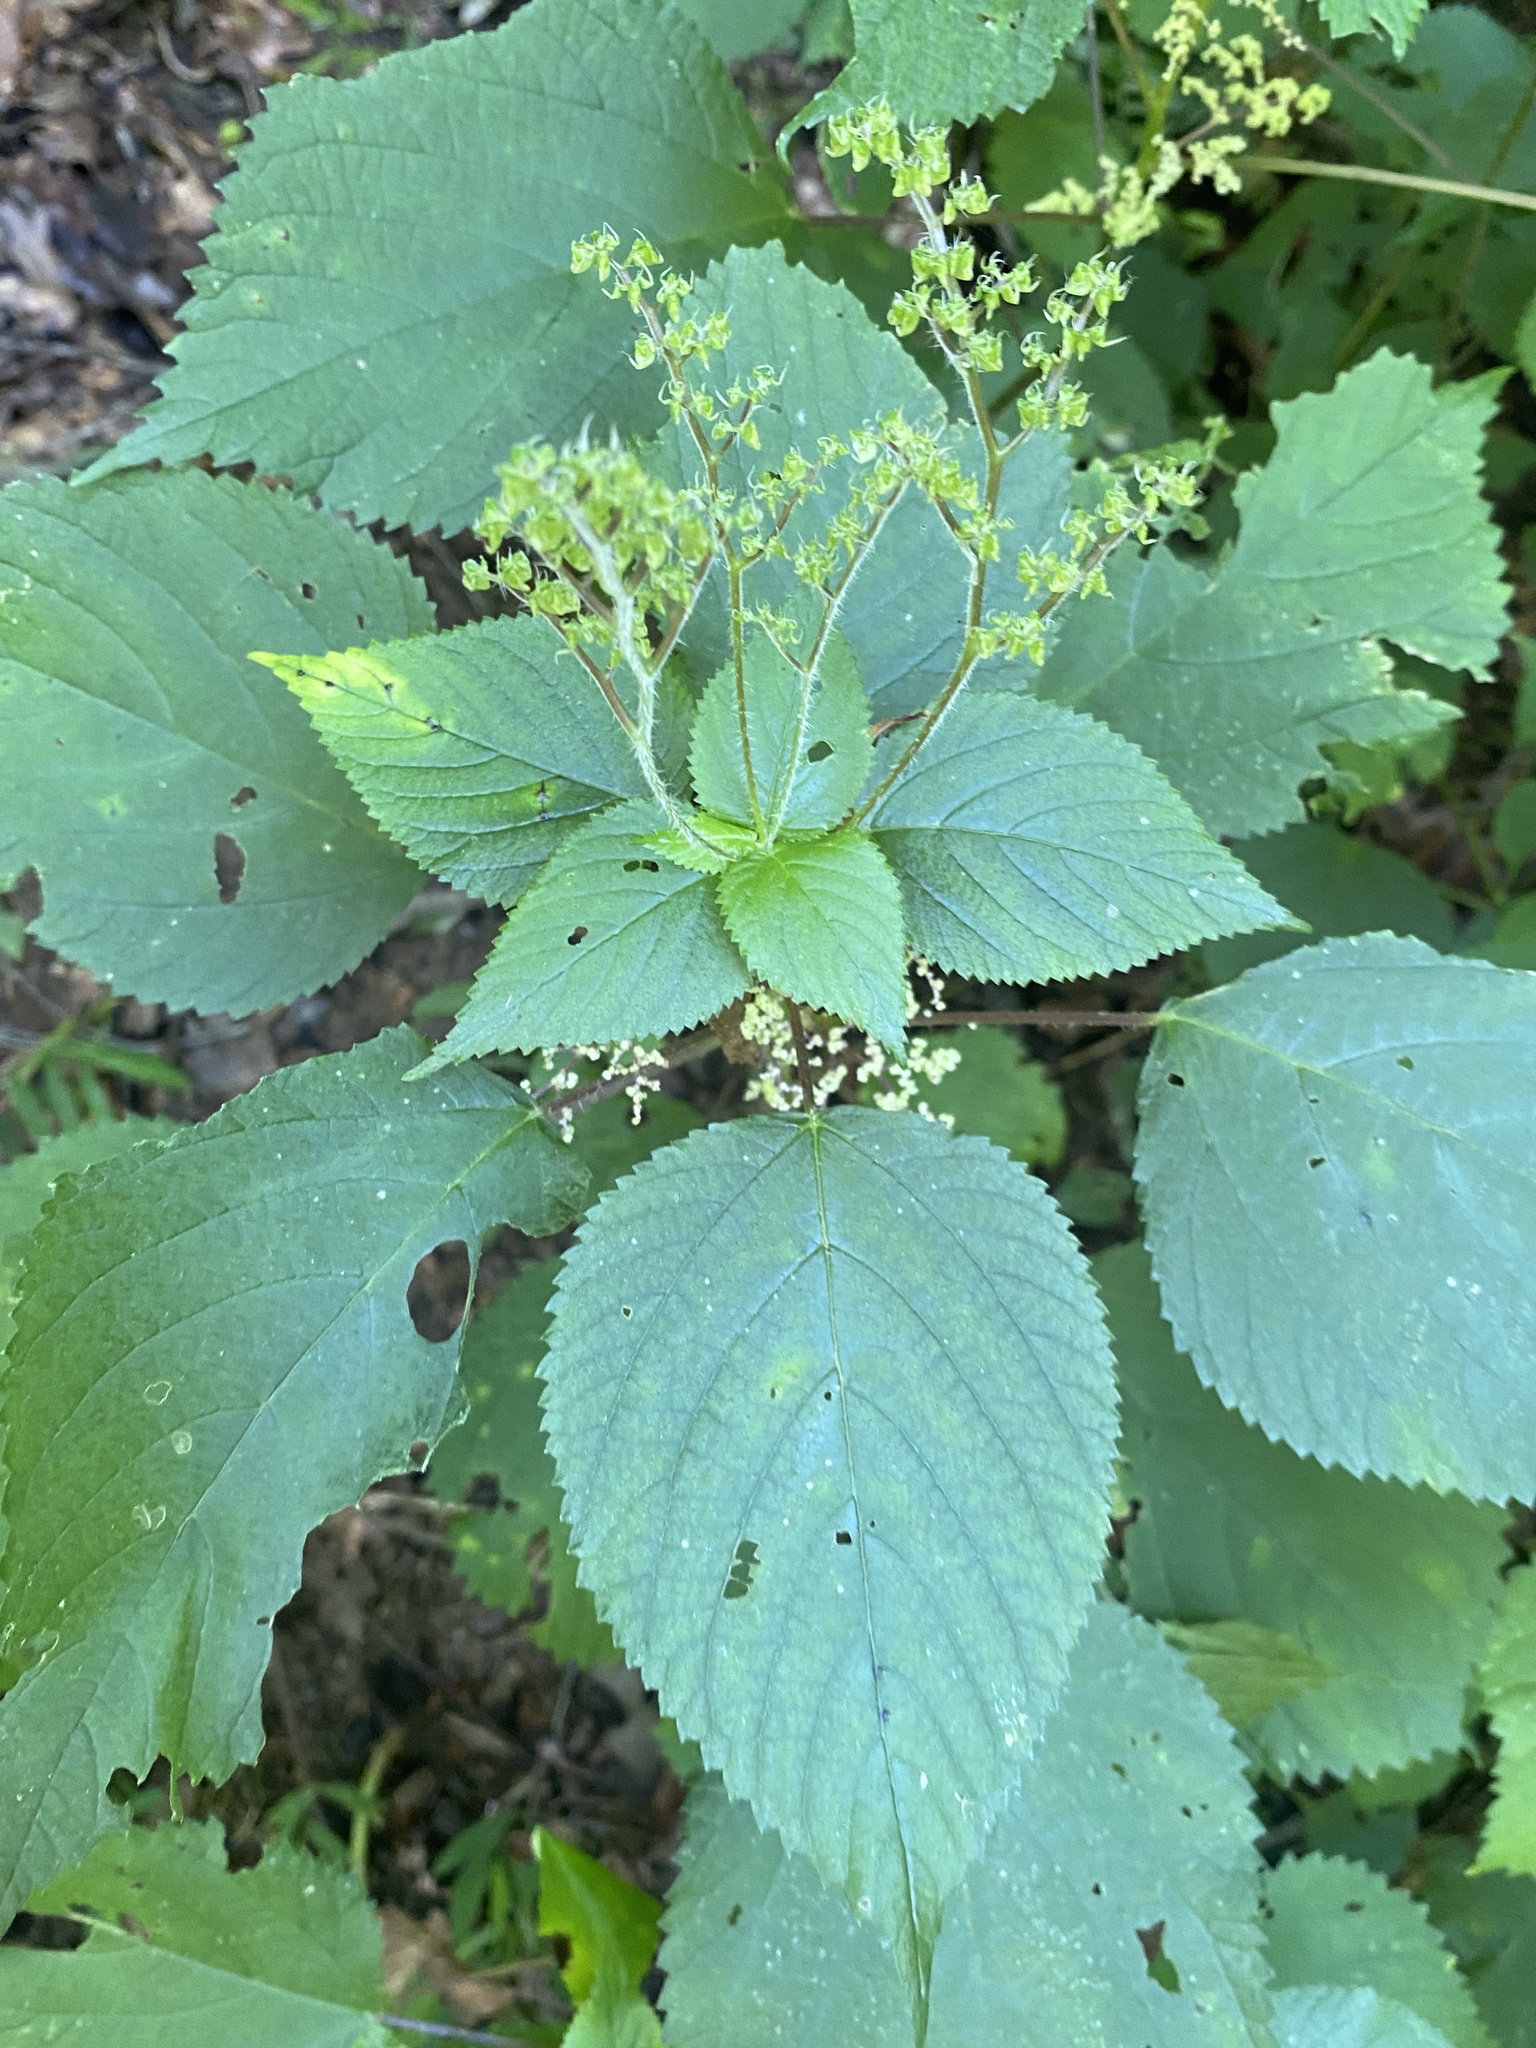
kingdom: Plantae
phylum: Tracheophyta
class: Magnoliopsida
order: Rosales
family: Urticaceae
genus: Laportea
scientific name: Laportea canadensis
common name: Canada nettle
